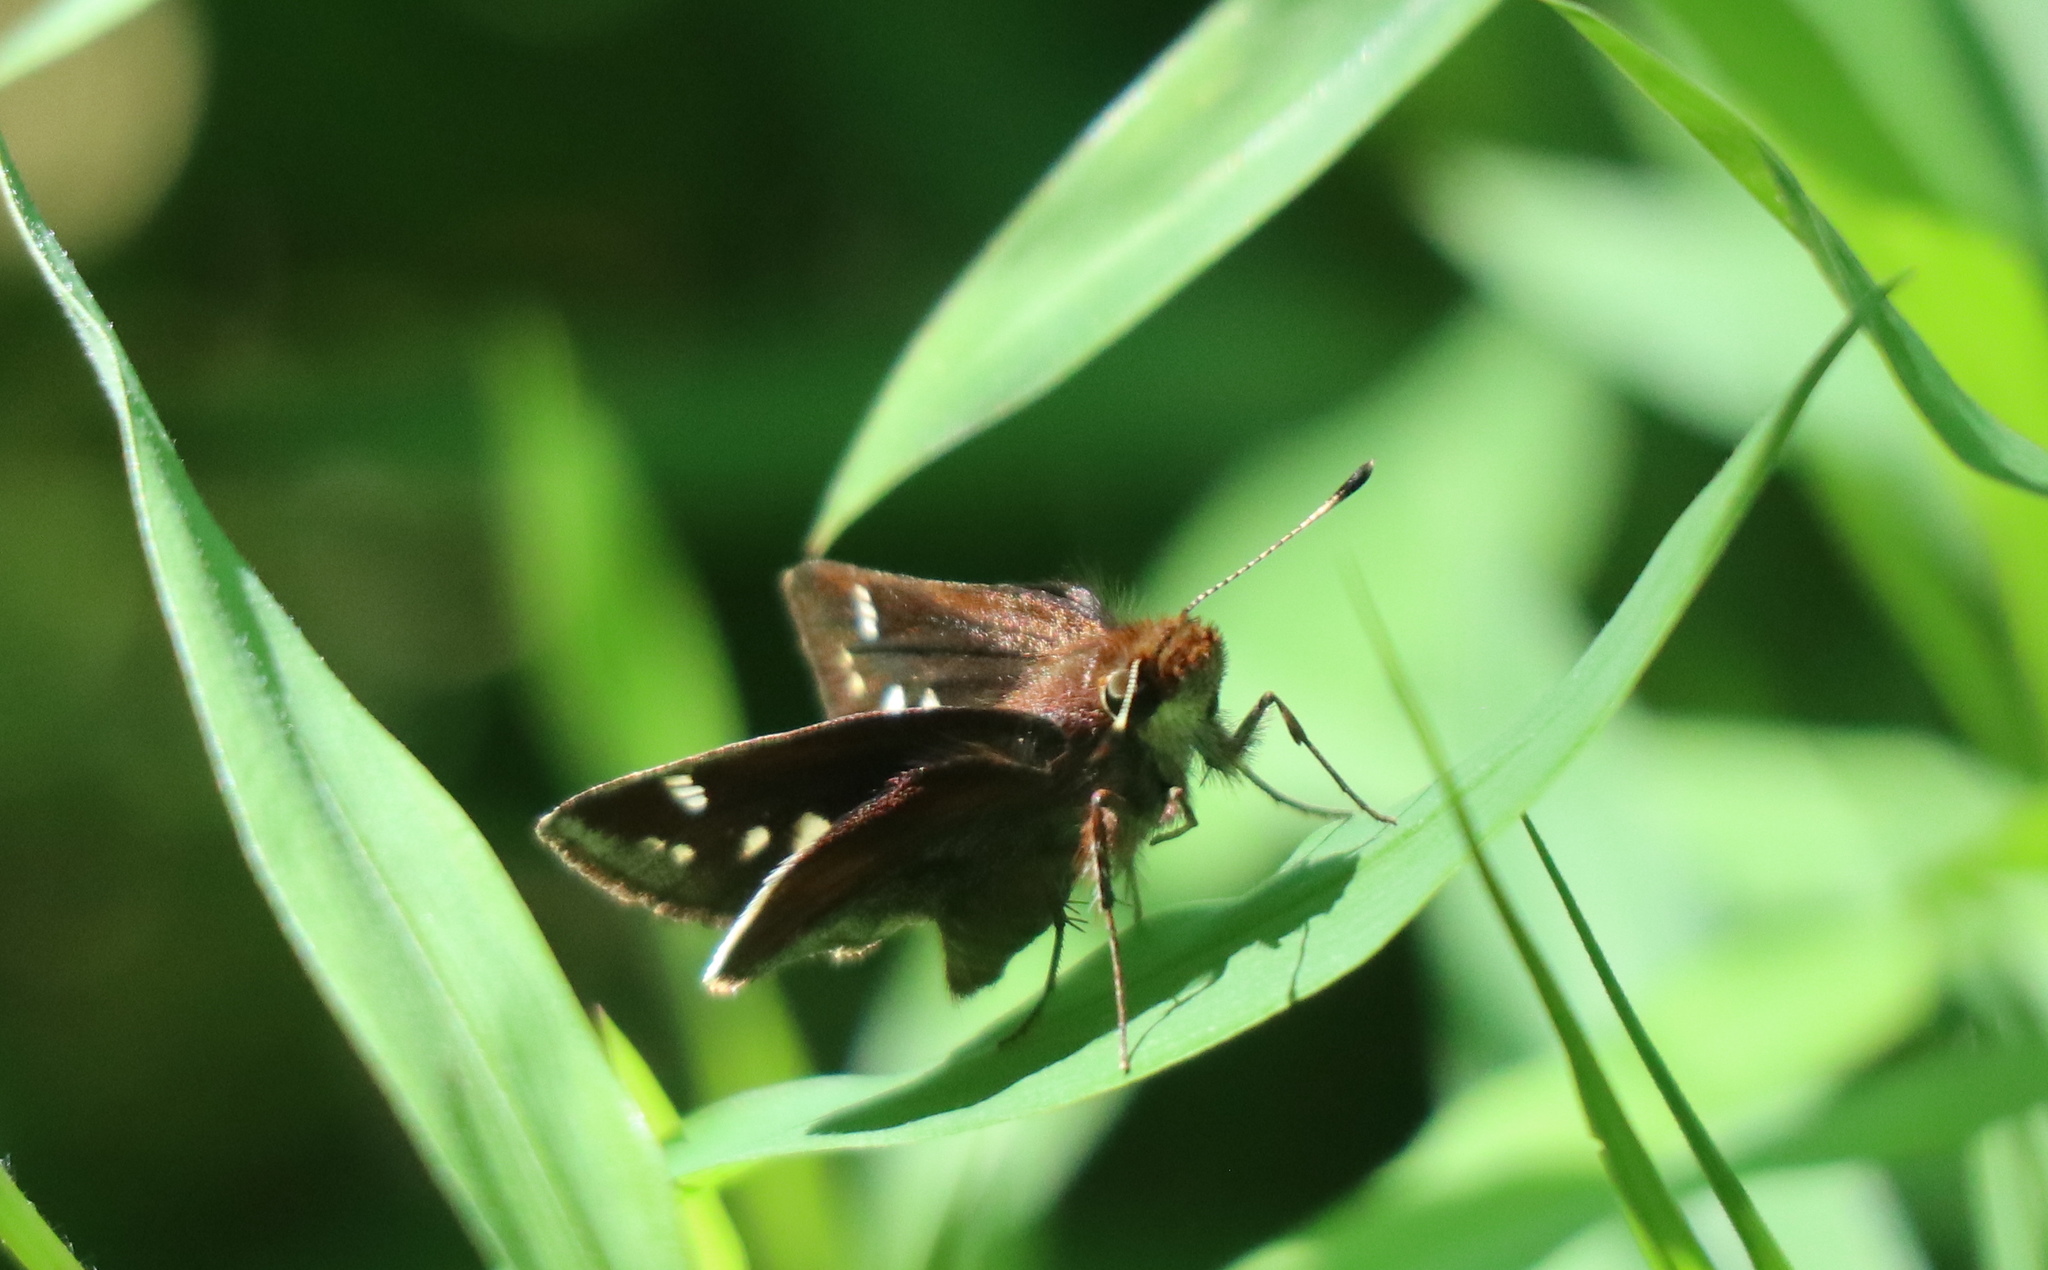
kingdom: Animalia
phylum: Arthropoda
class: Insecta
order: Lepidoptera
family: Hesperiidae
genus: Lon
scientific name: Lon zabulon
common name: Zabulon skipper
